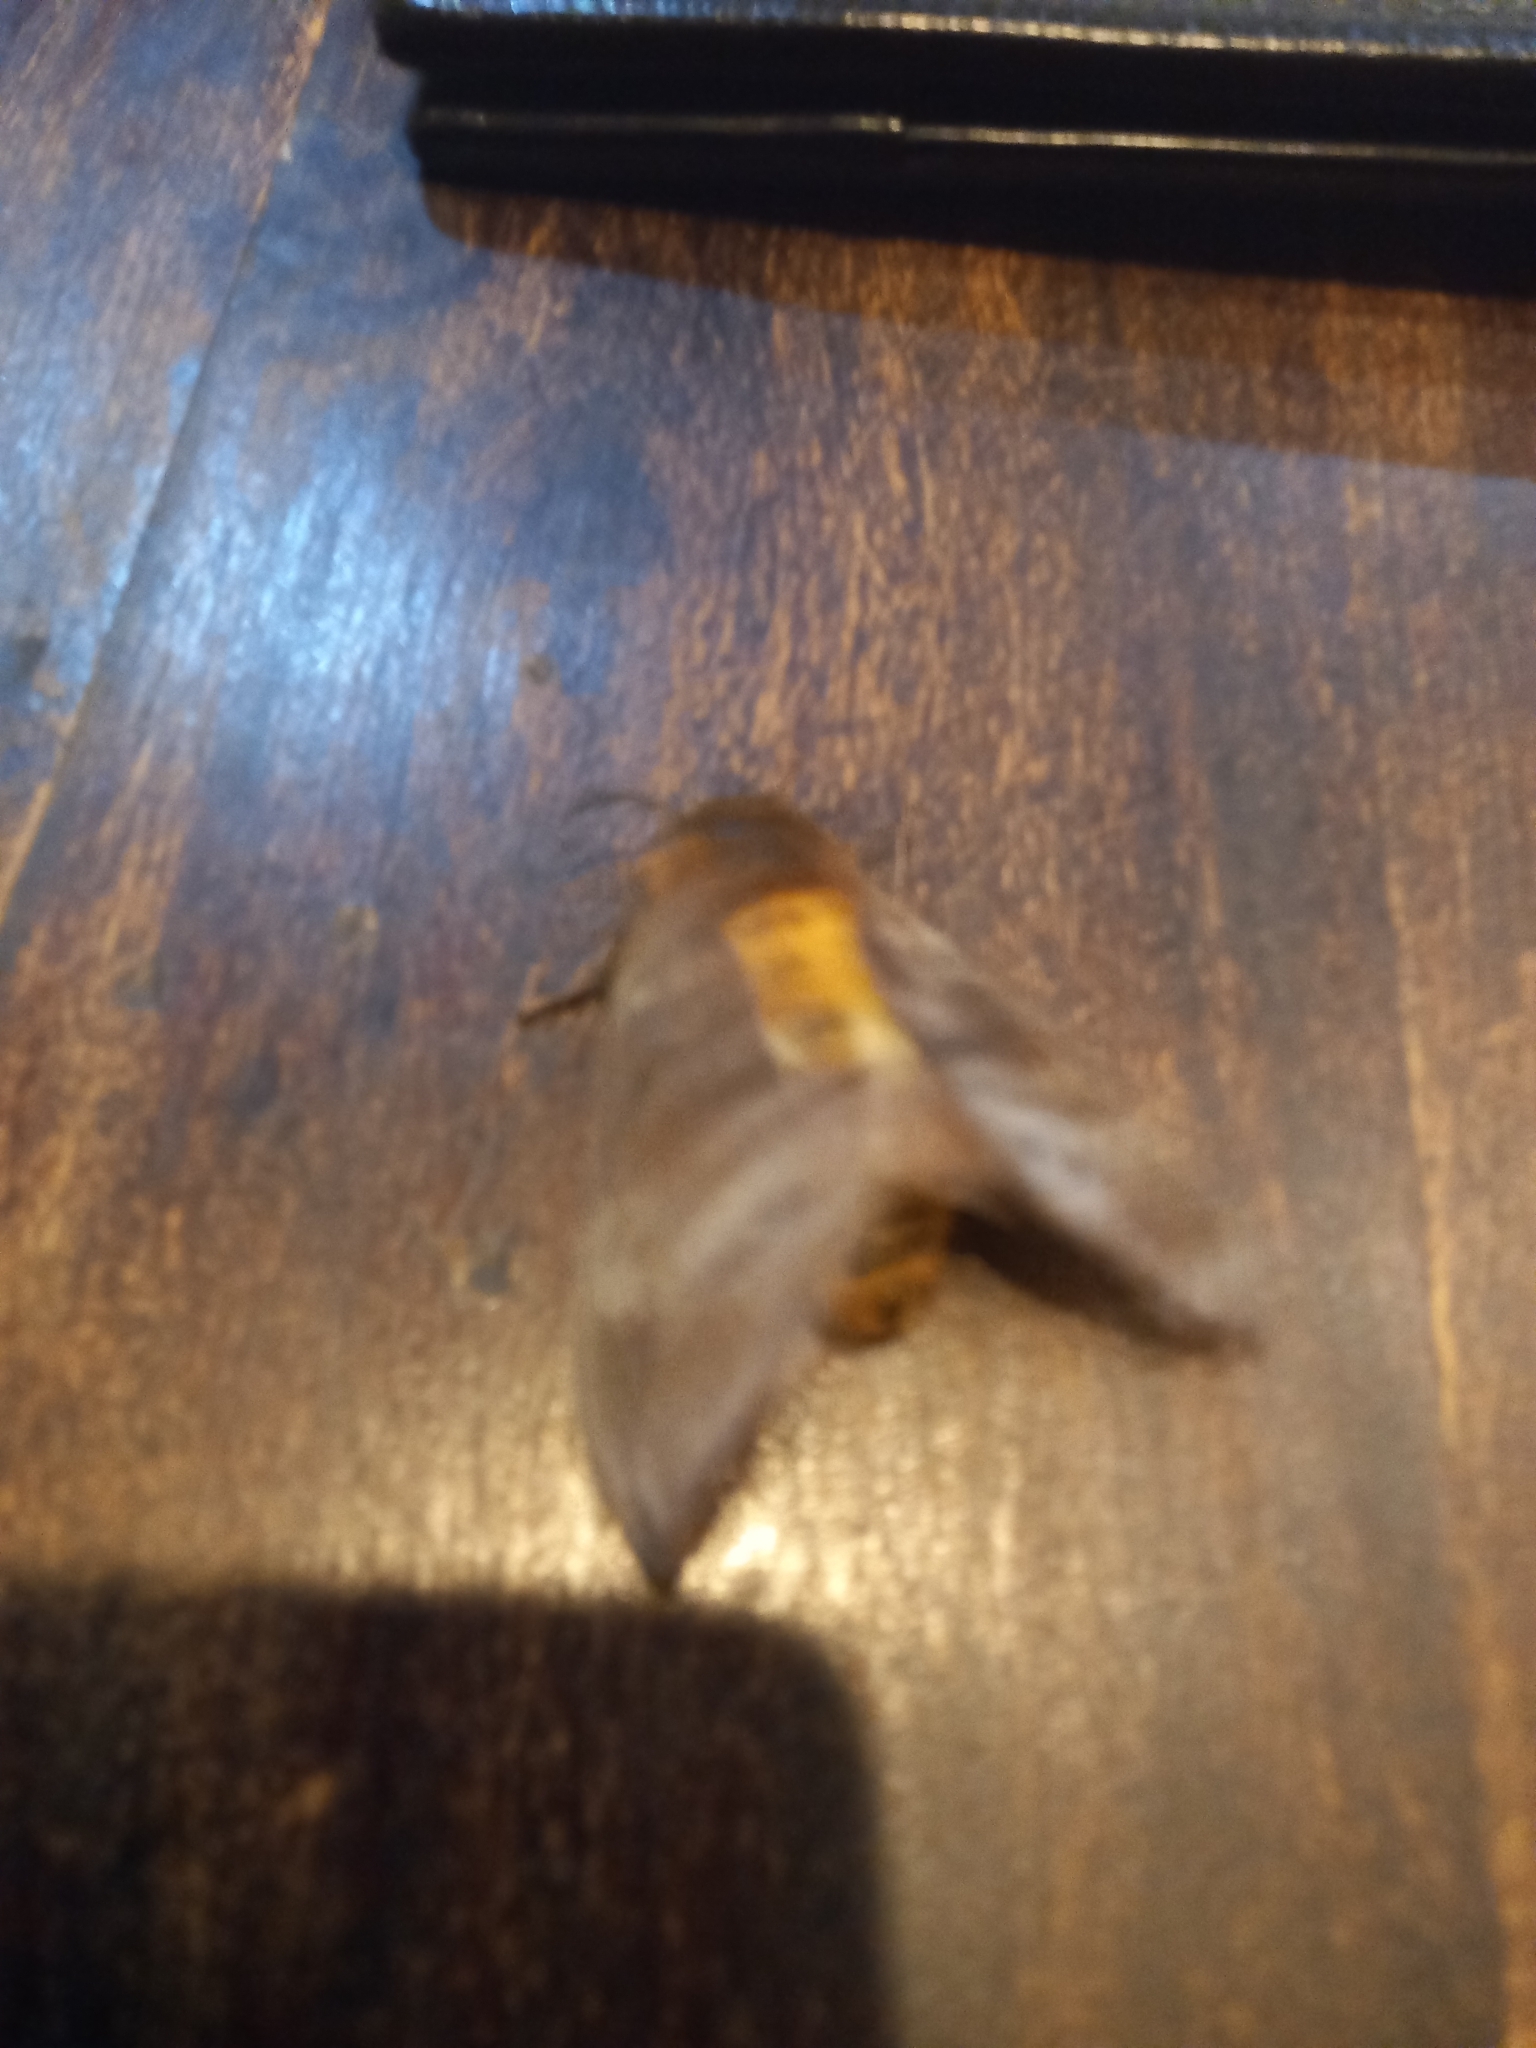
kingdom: Animalia
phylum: Arthropoda
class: Insecta
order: Lepidoptera
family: Lasiocampidae
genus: Gonometa
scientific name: Gonometa postica
